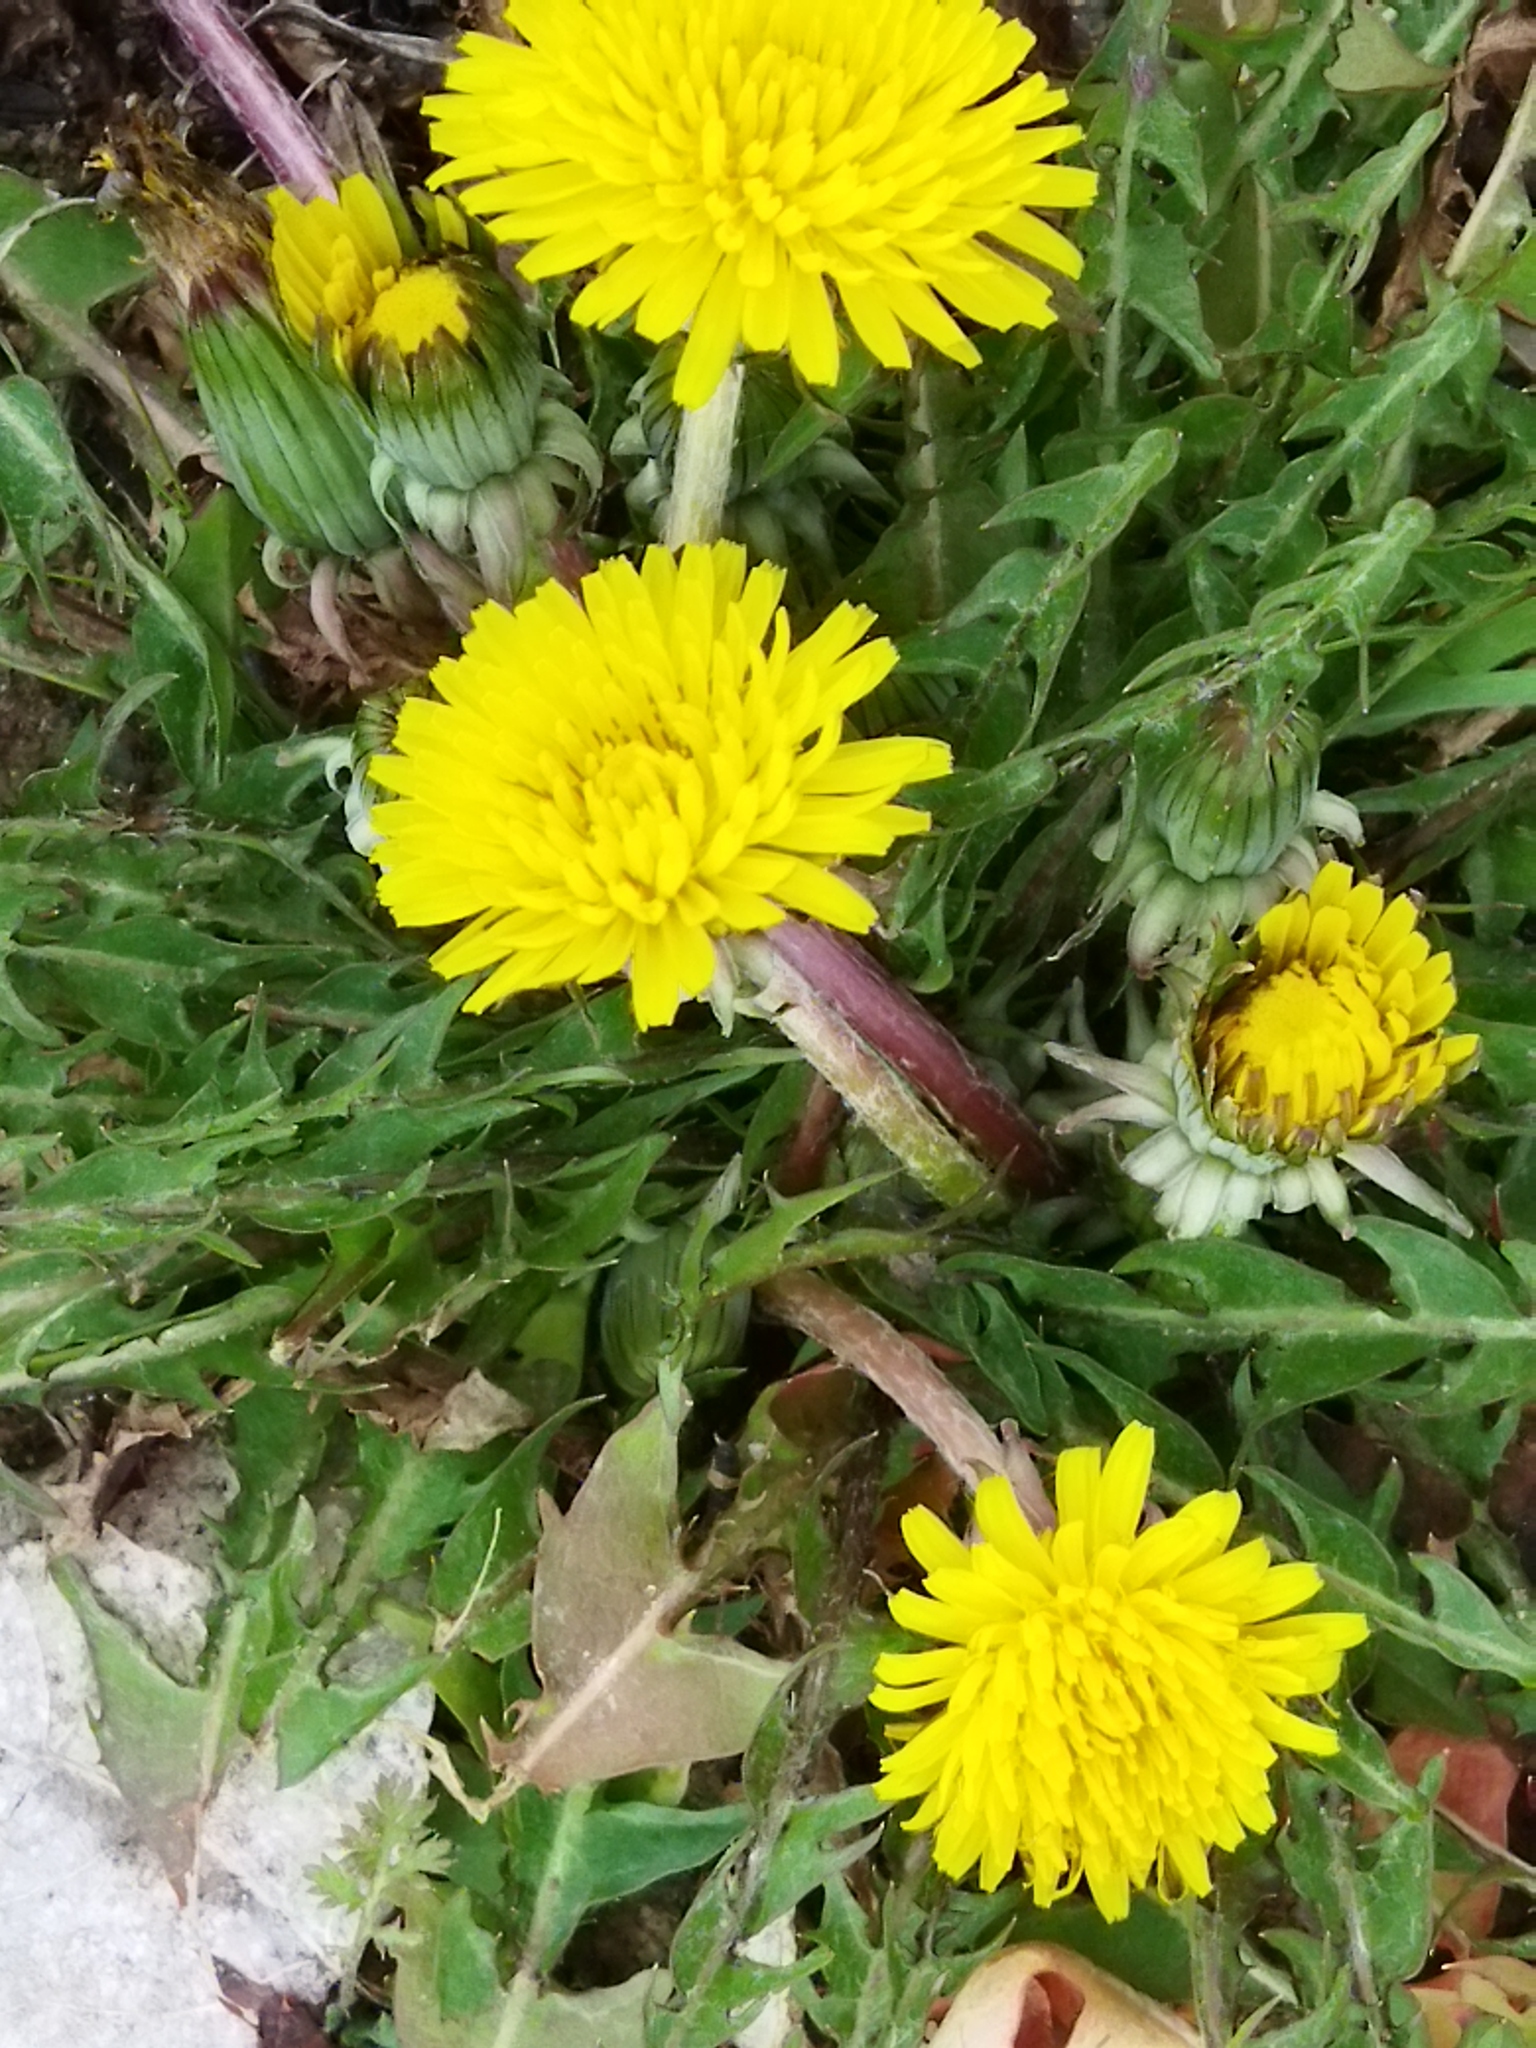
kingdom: Plantae
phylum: Tracheophyta
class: Magnoliopsida
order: Asterales
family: Asteraceae
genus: Taraxacum
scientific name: Taraxacum
